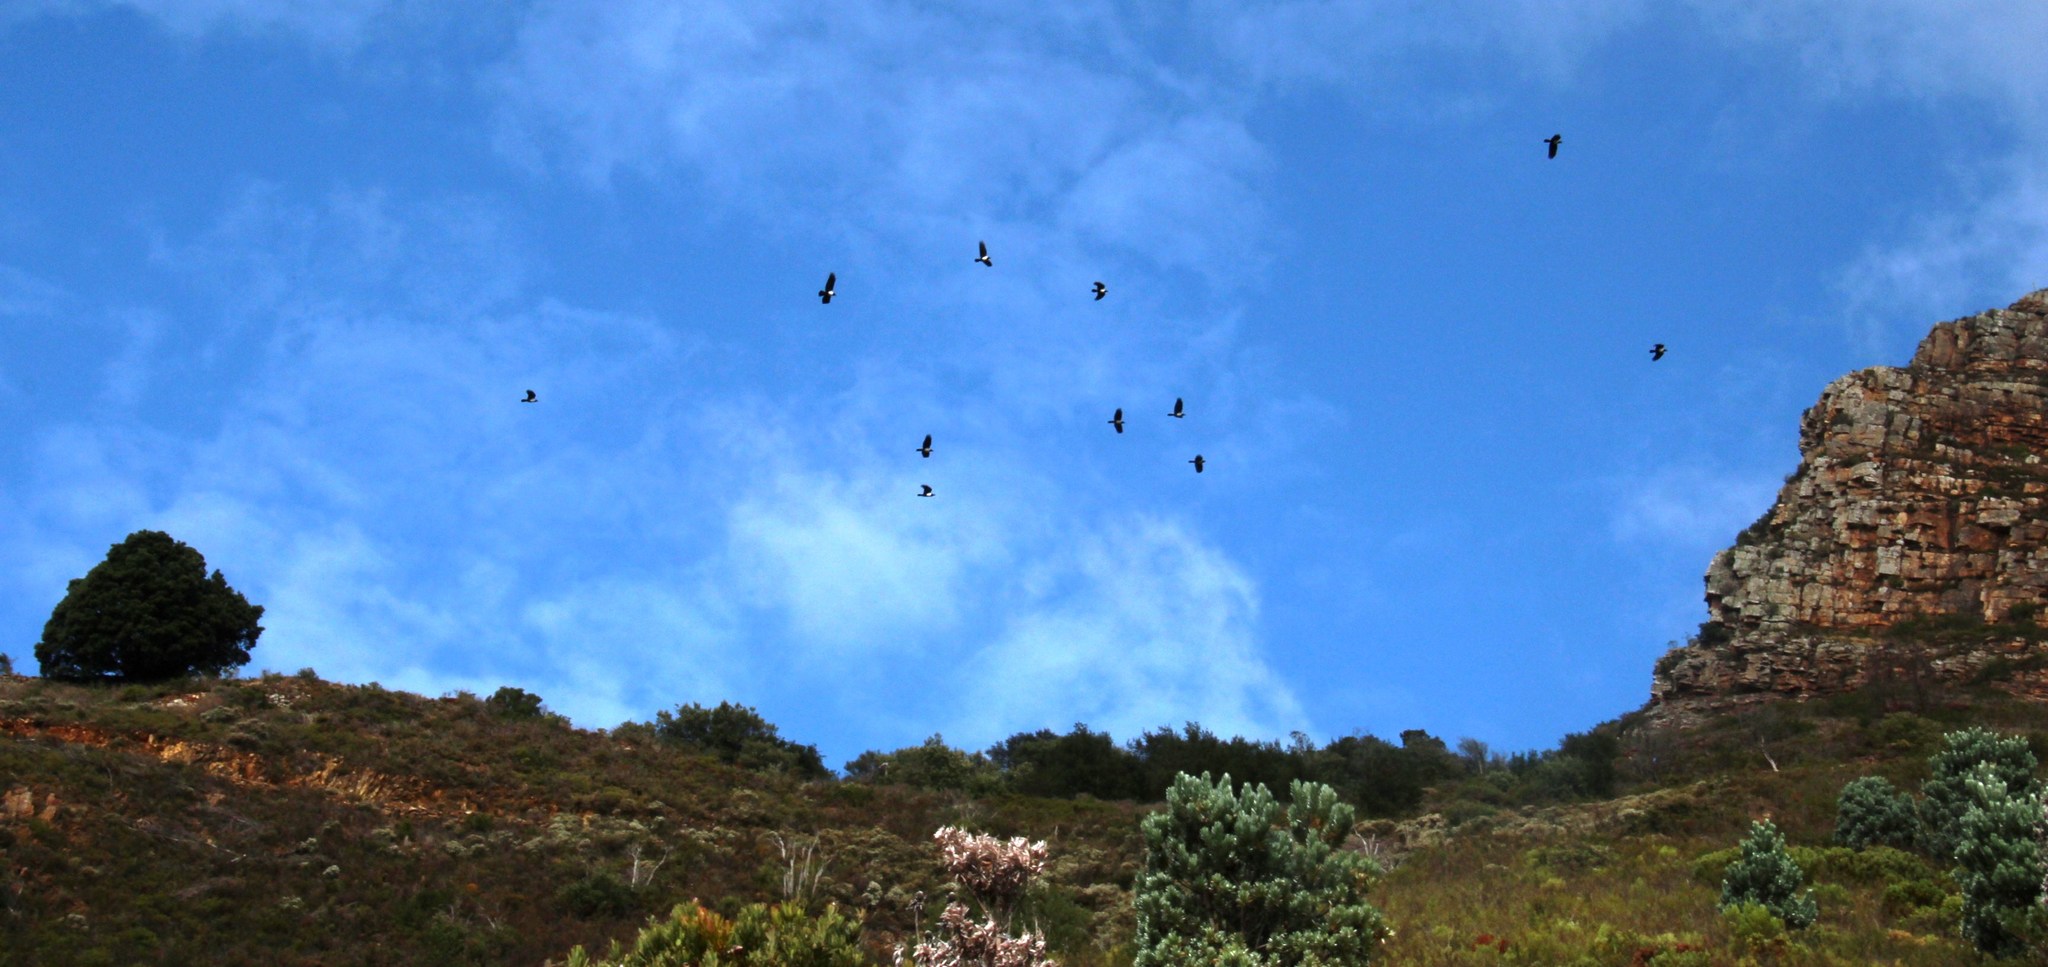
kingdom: Animalia
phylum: Chordata
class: Aves
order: Passeriformes
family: Corvidae
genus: Corvus
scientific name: Corvus albus
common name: Pied crow
